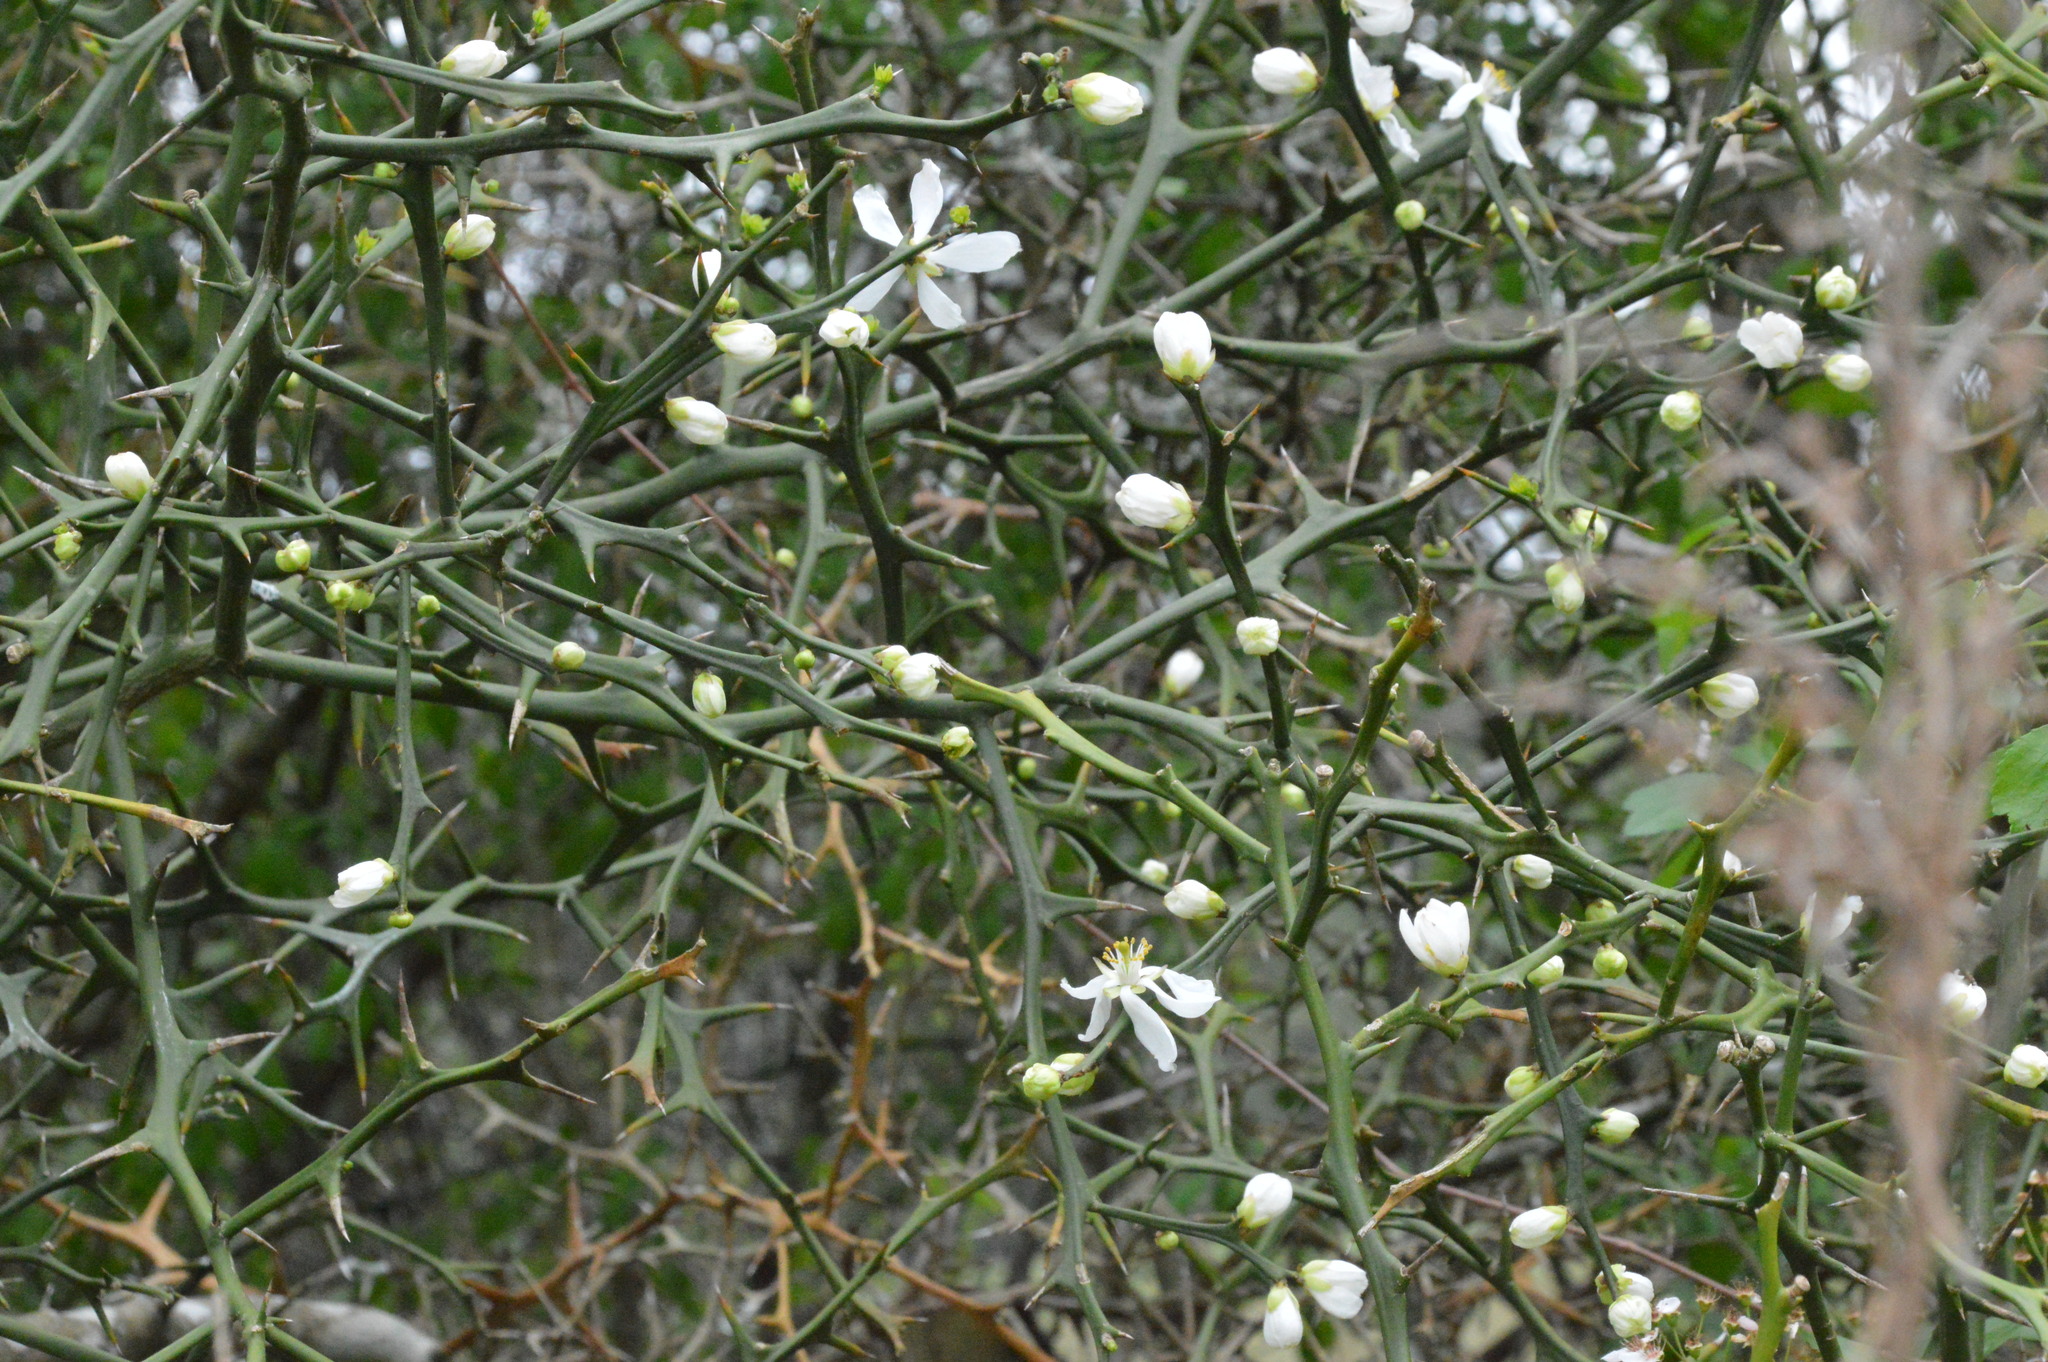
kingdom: Plantae
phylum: Tracheophyta
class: Magnoliopsida
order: Sapindales
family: Rutaceae
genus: Citrus
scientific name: Citrus trifoliata
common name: Japanese bitter-orange
